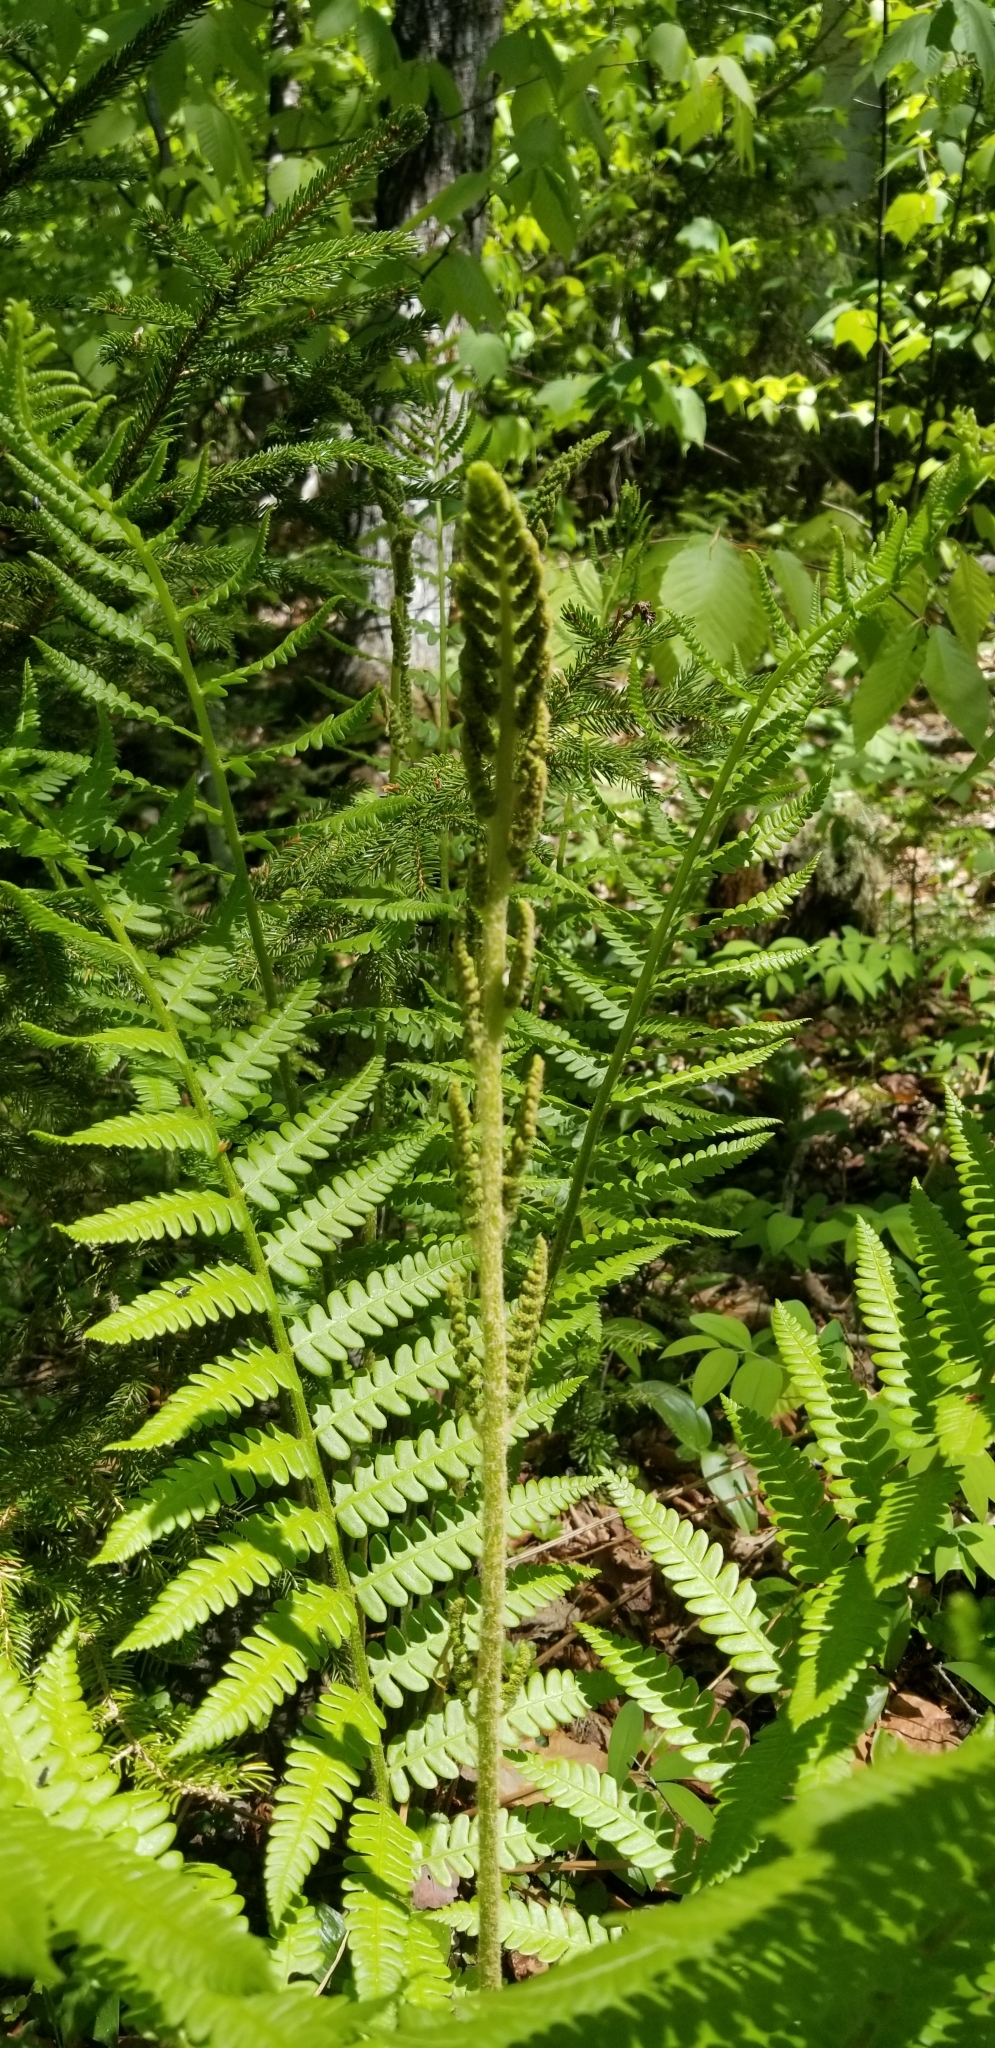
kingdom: Plantae
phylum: Tracheophyta
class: Polypodiopsida
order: Osmundales
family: Osmundaceae
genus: Osmundastrum
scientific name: Osmundastrum cinnamomeum
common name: Cinnamon fern
